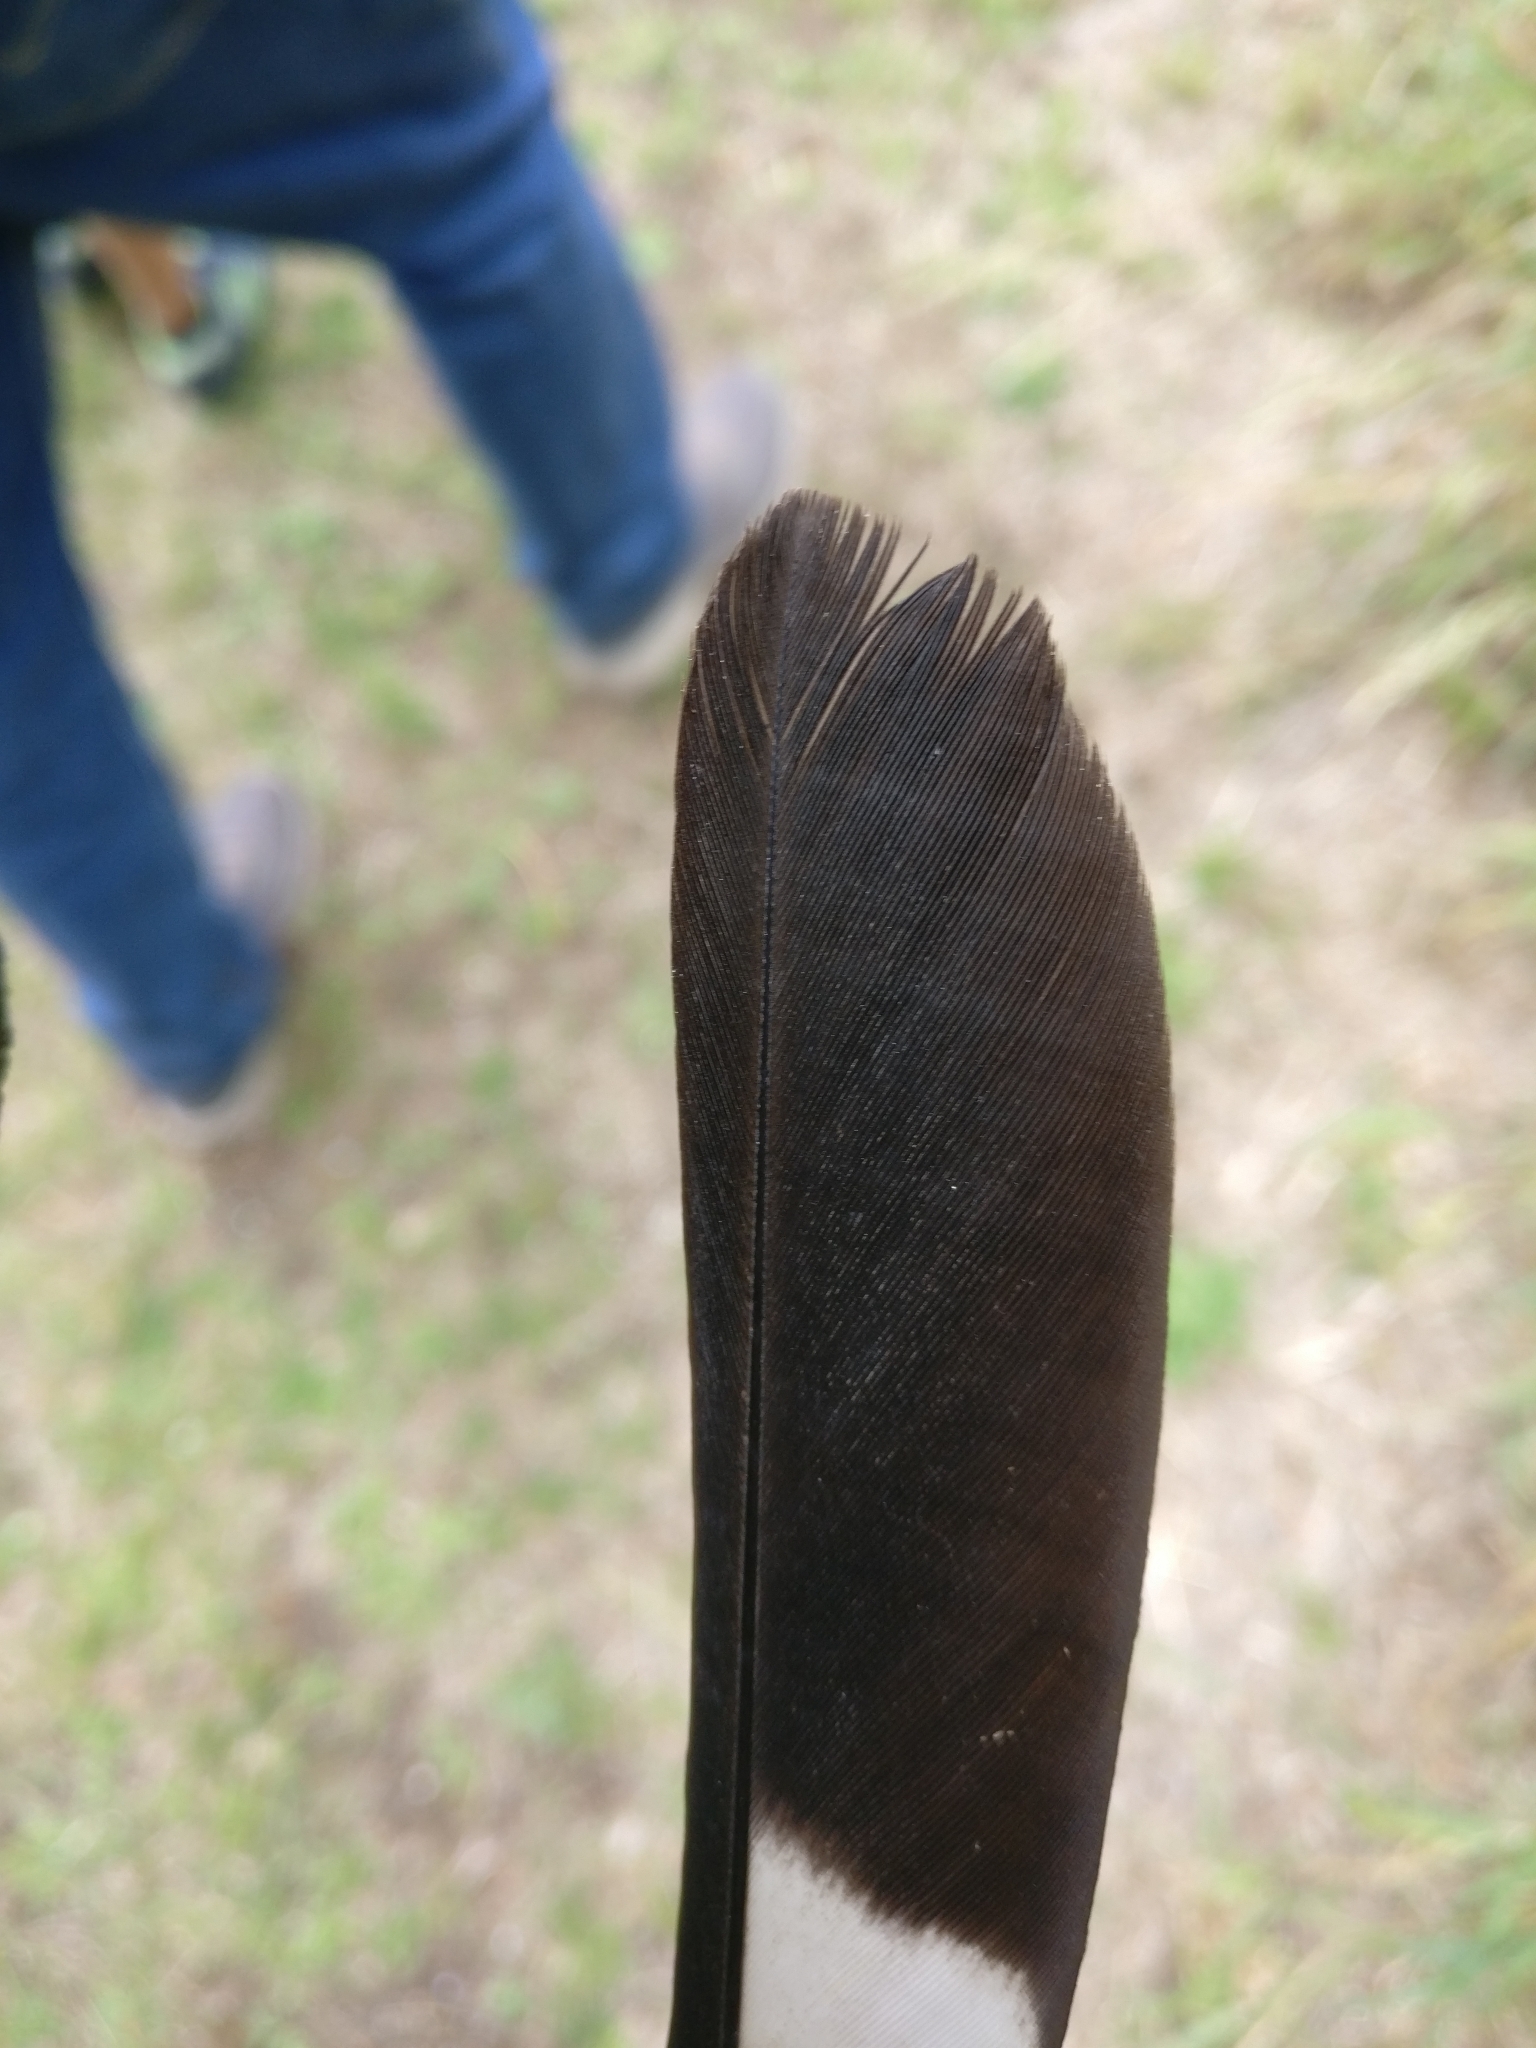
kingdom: Animalia
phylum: Chordata
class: Aves
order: Passeriformes
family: Cracticidae
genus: Gymnorhina
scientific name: Gymnorhina tibicen
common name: Australian magpie
